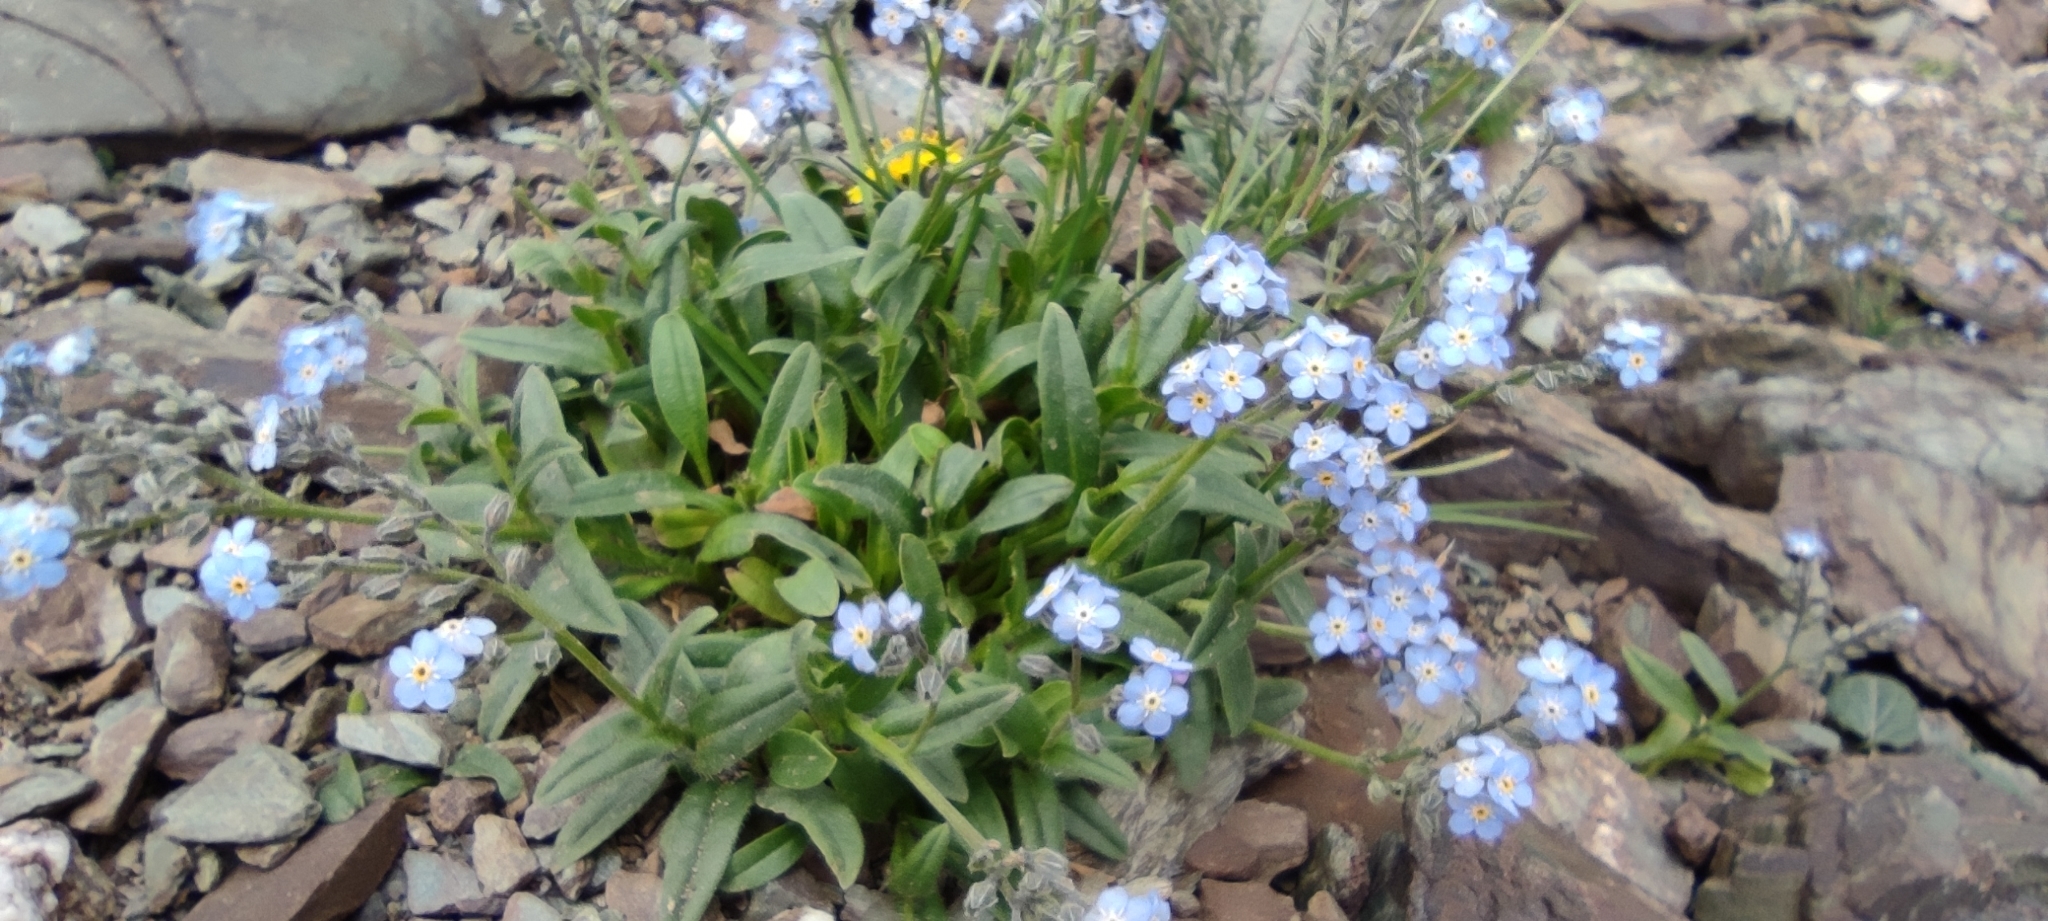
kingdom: Plantae
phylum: Tracheophyta
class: Magnoliopsida
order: Boraginales
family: Boraginaceae
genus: Myosotis
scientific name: Myosotis alpestris
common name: Alpine forget-me-not
